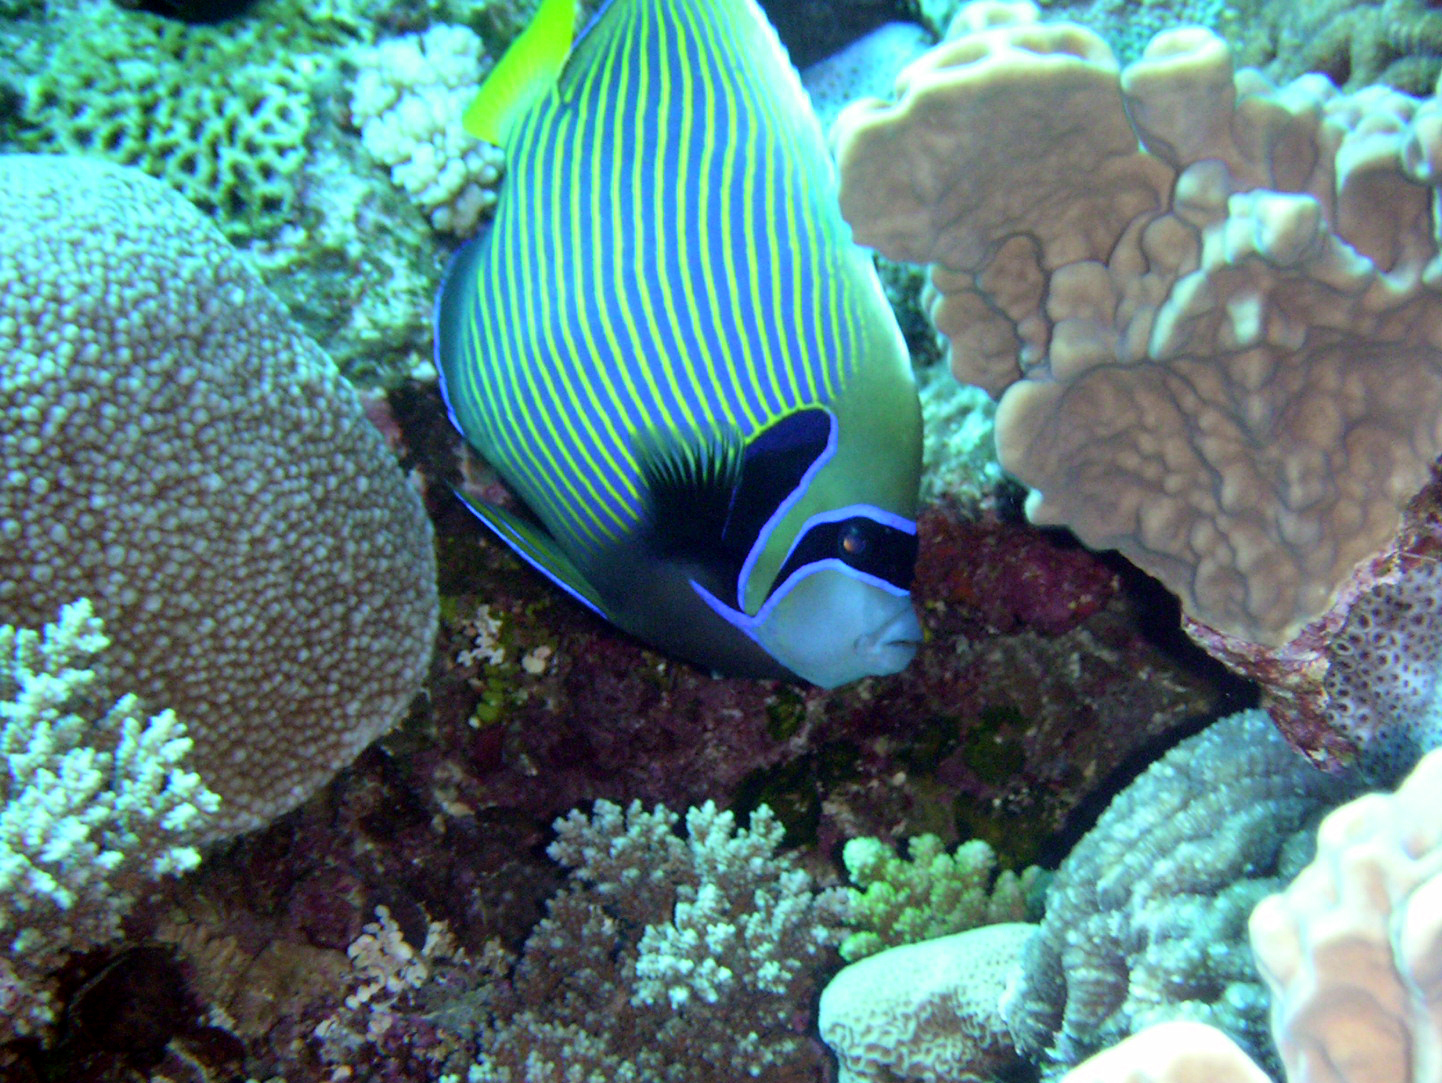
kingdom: Animalia
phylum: Chordata
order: Perciformes
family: Pomacanthidae
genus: Pomacanthus
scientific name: Pomacanthus imperator
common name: Emperor angelfish
